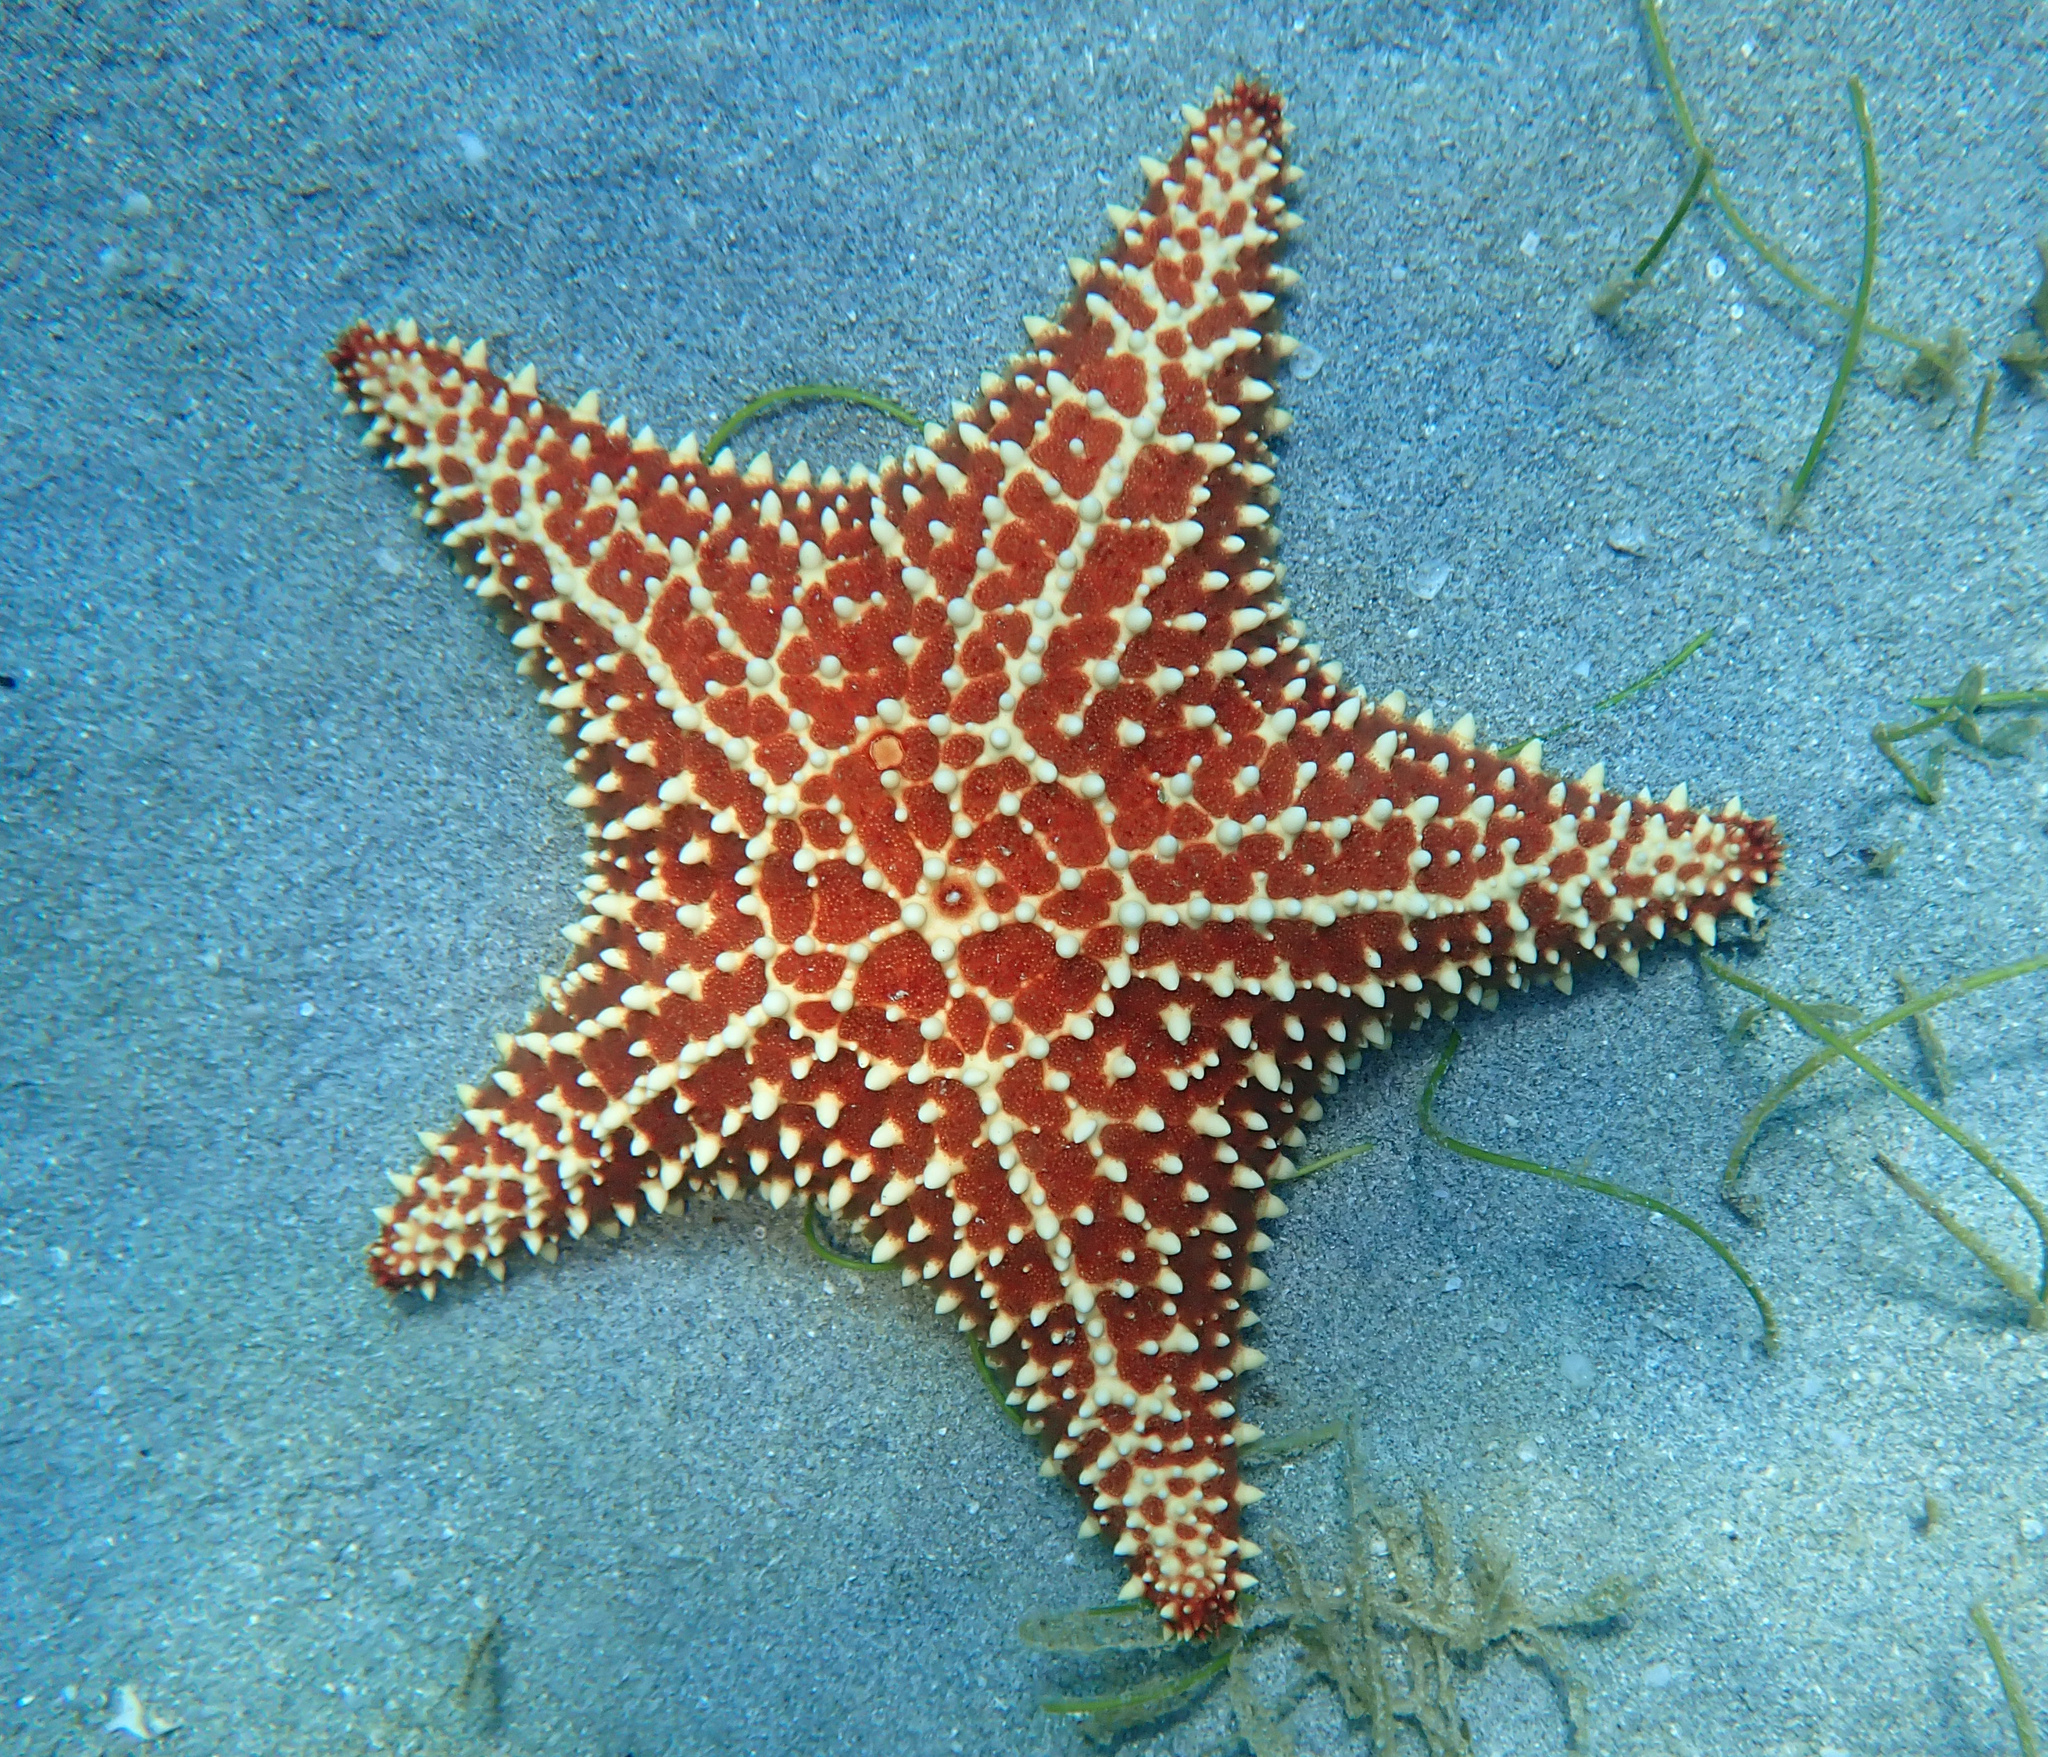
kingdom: Animalia
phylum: Echinodermata
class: Asteroidea
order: Valvatida
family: Oreasteridae
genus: Oreaster
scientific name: Oreaster reticulatus
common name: Cushion sea star
